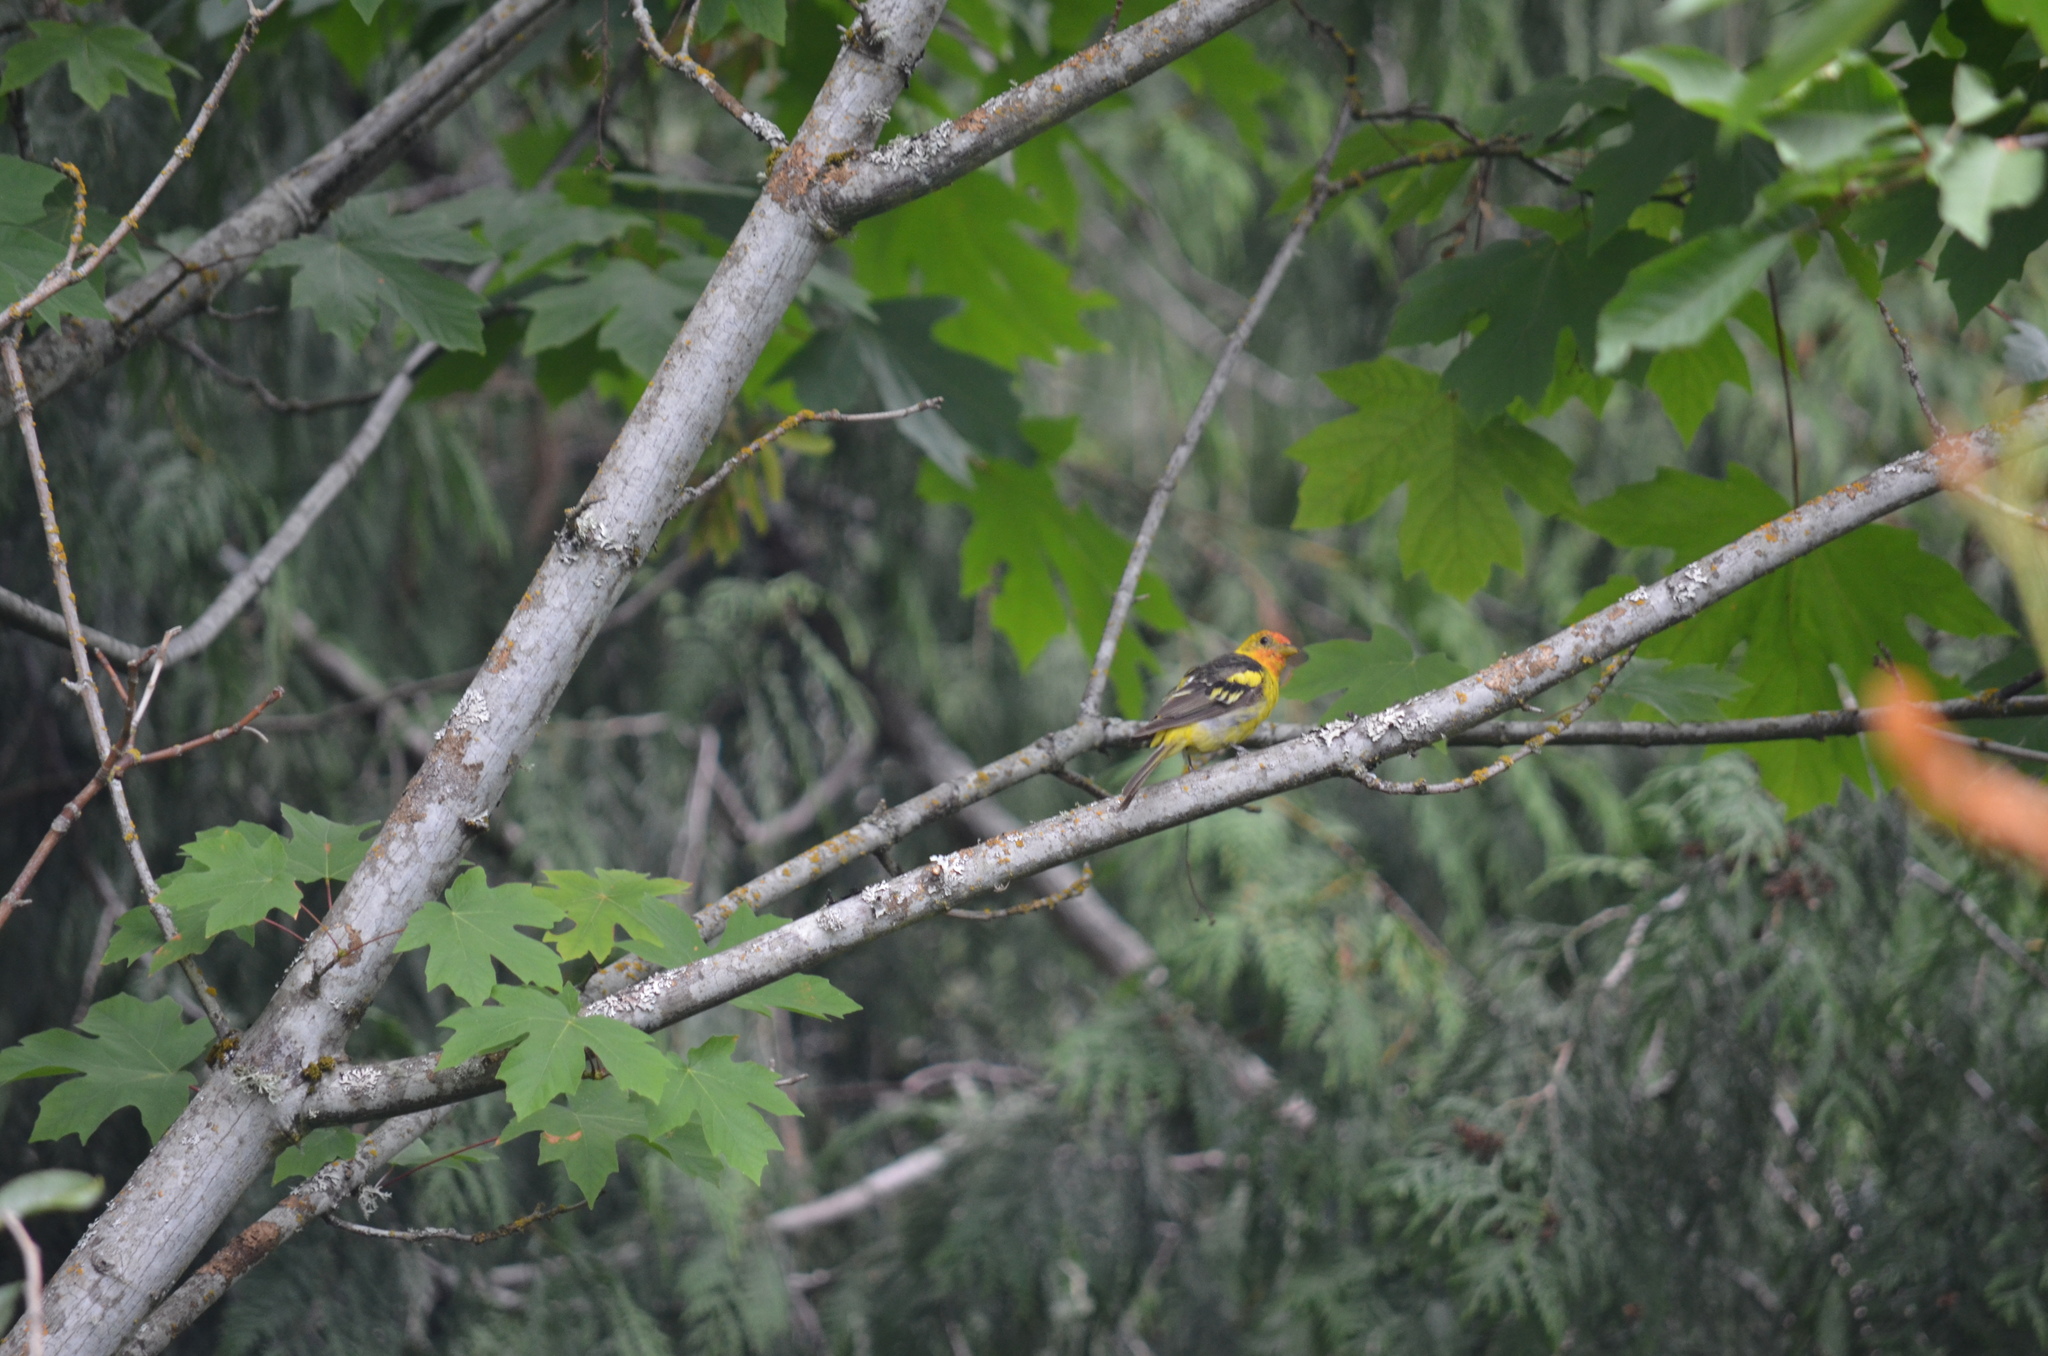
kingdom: Animalia
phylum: Chordata
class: Aves
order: Passeriformes
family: Cardinalidae
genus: Piranga
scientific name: Piranga ludoviciana
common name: Western tanager
